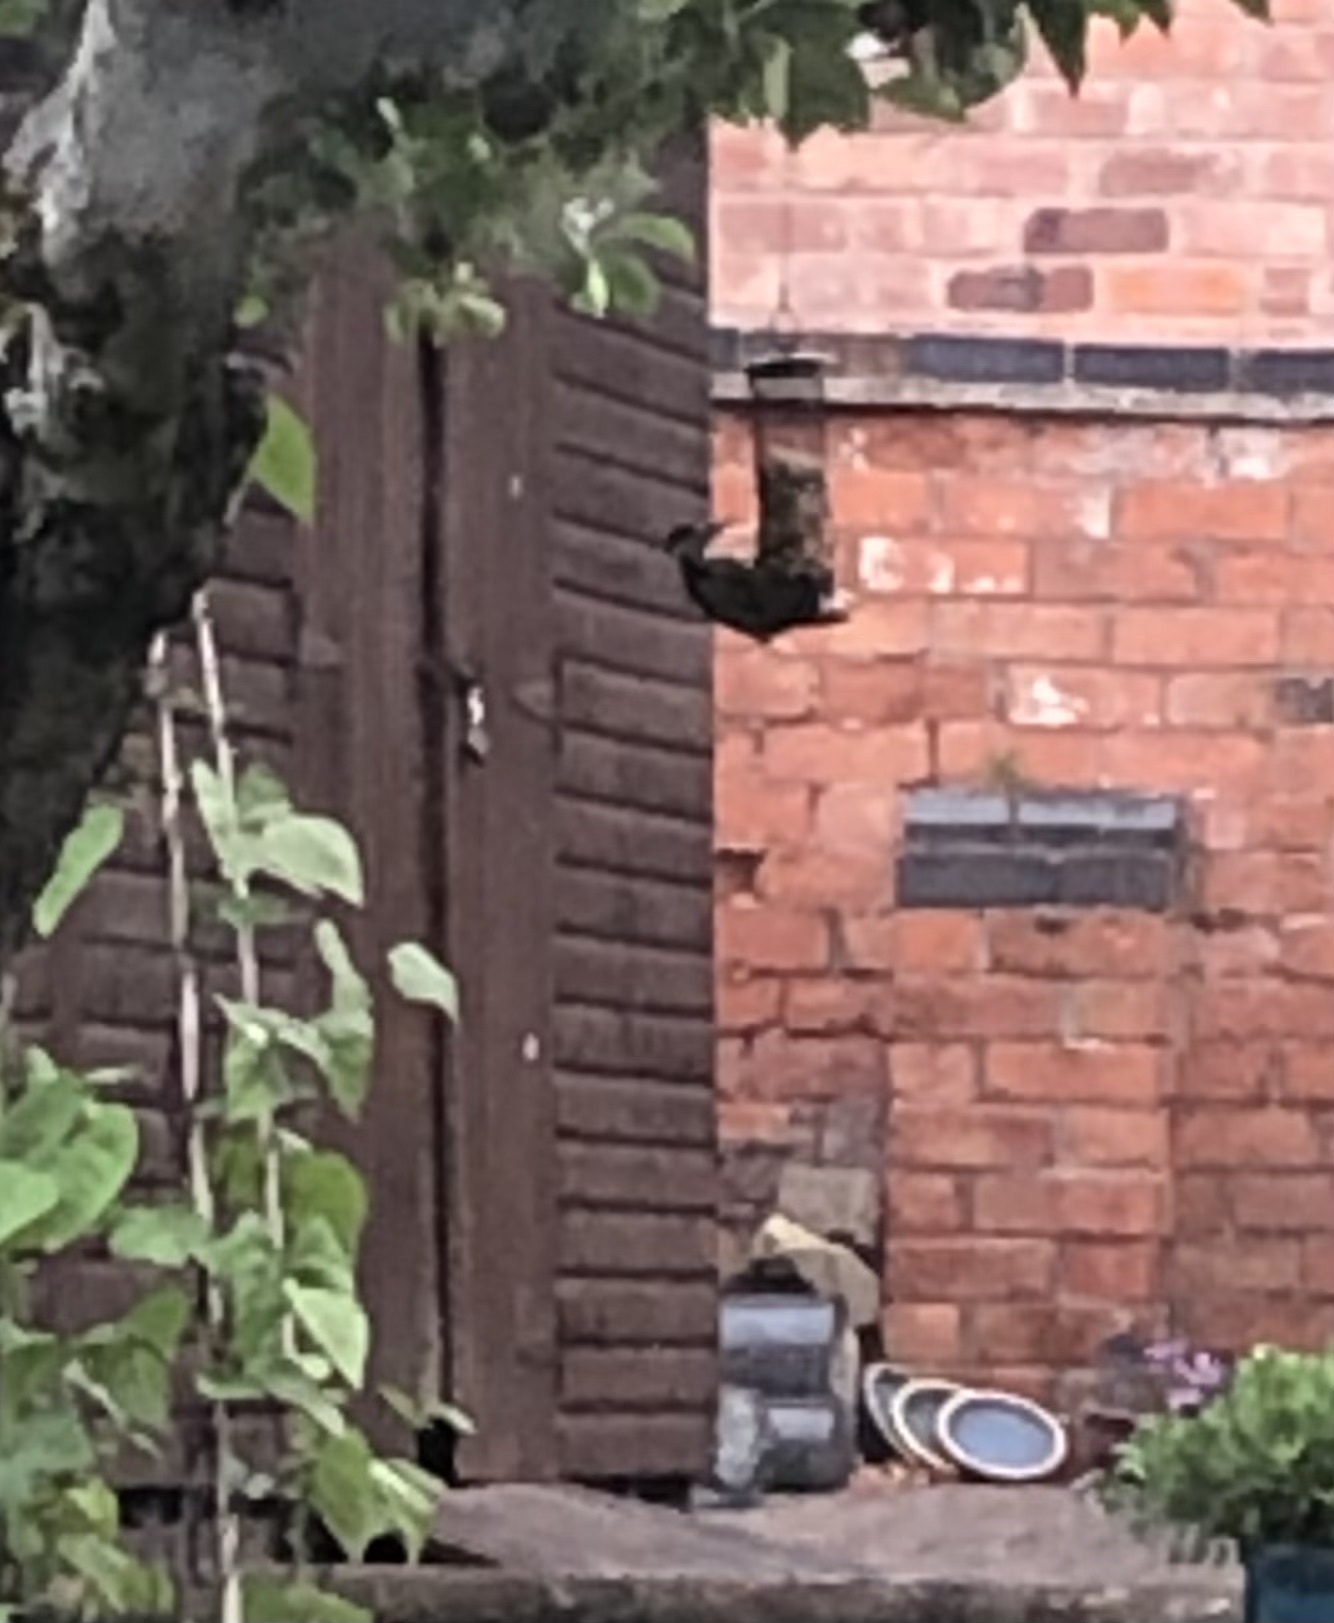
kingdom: Animalia
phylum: Chordata
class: Aves
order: Piciformes
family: Picidae
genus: Dendrocopos
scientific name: Dendrocopos major
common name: Great spotted woodpecker
